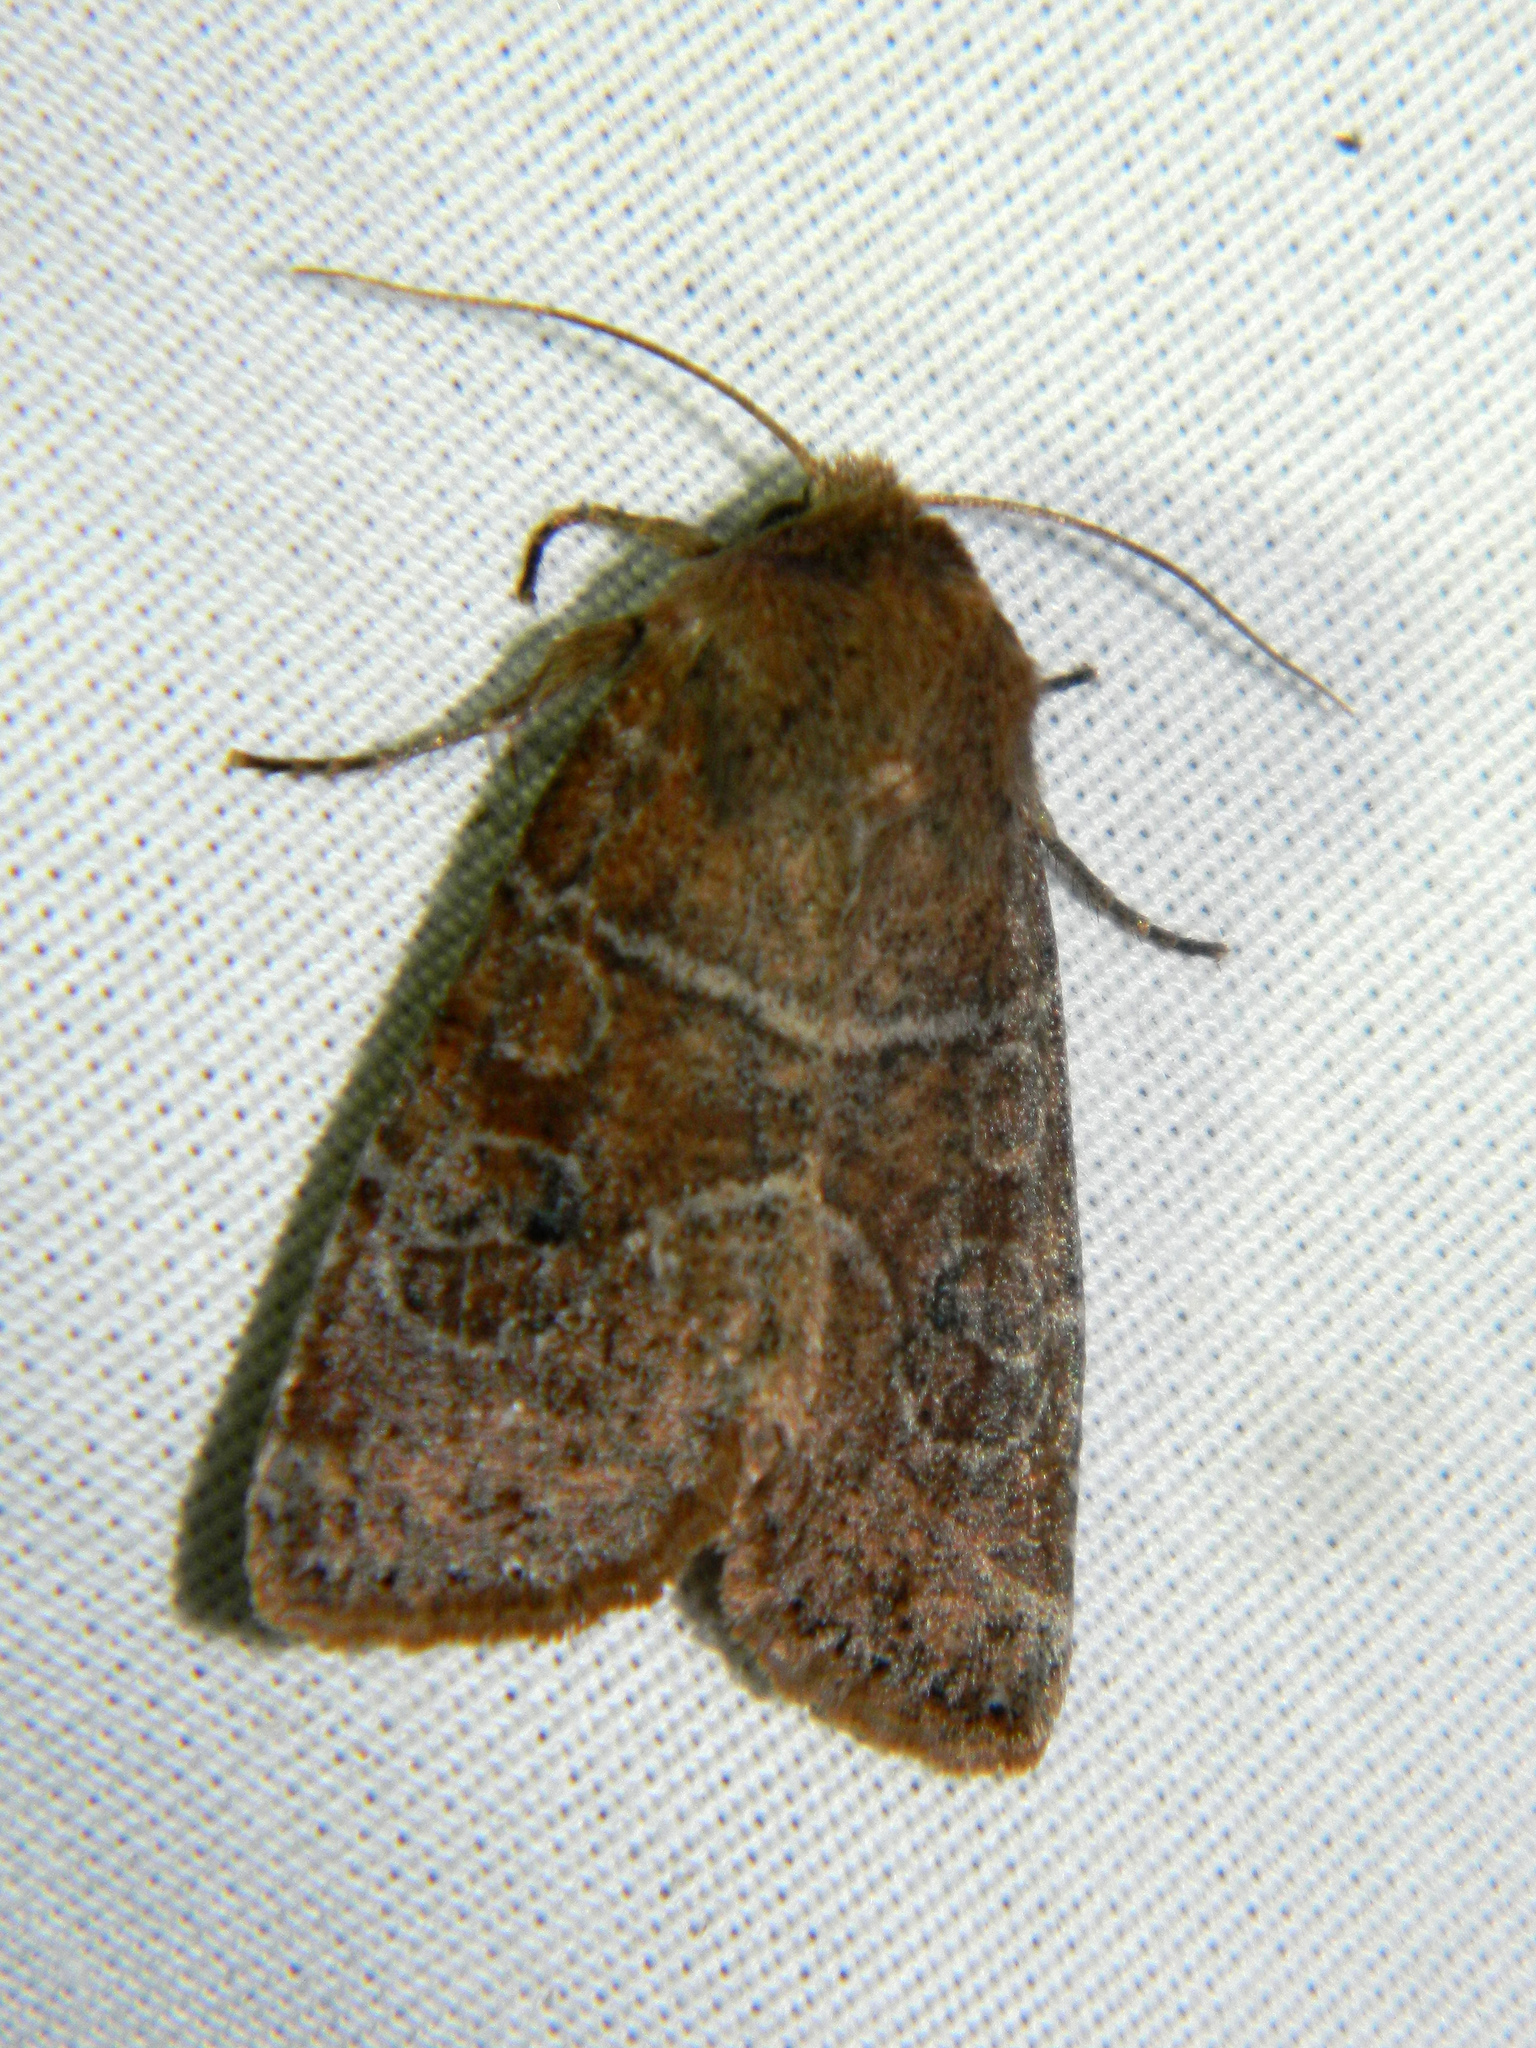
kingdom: Animalia
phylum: Arthropoda
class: Insecta
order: Lepidoptera
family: Noctuidae
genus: Crocigrapha
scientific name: Crocigrapha normani
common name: Norman's quaker
